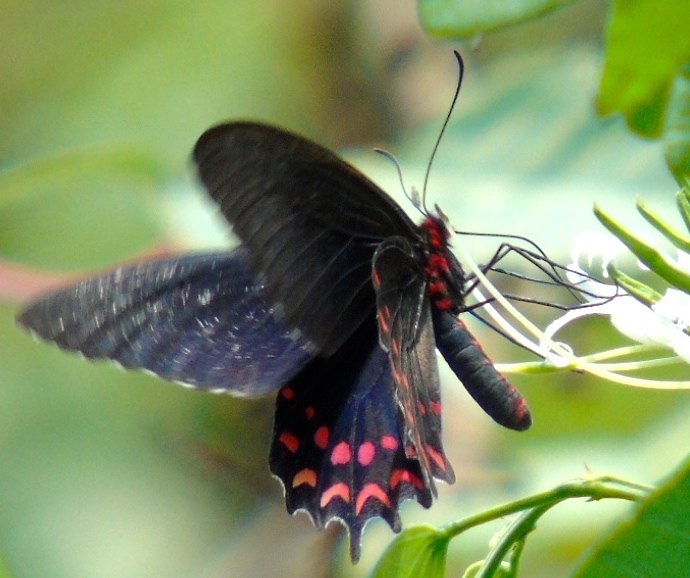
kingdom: Animalia
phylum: Arthropoda
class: Insecta
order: Lepidoptera
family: Papilionidae
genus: Parides
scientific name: Parides photinus
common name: Pink-spotted cattleheart
